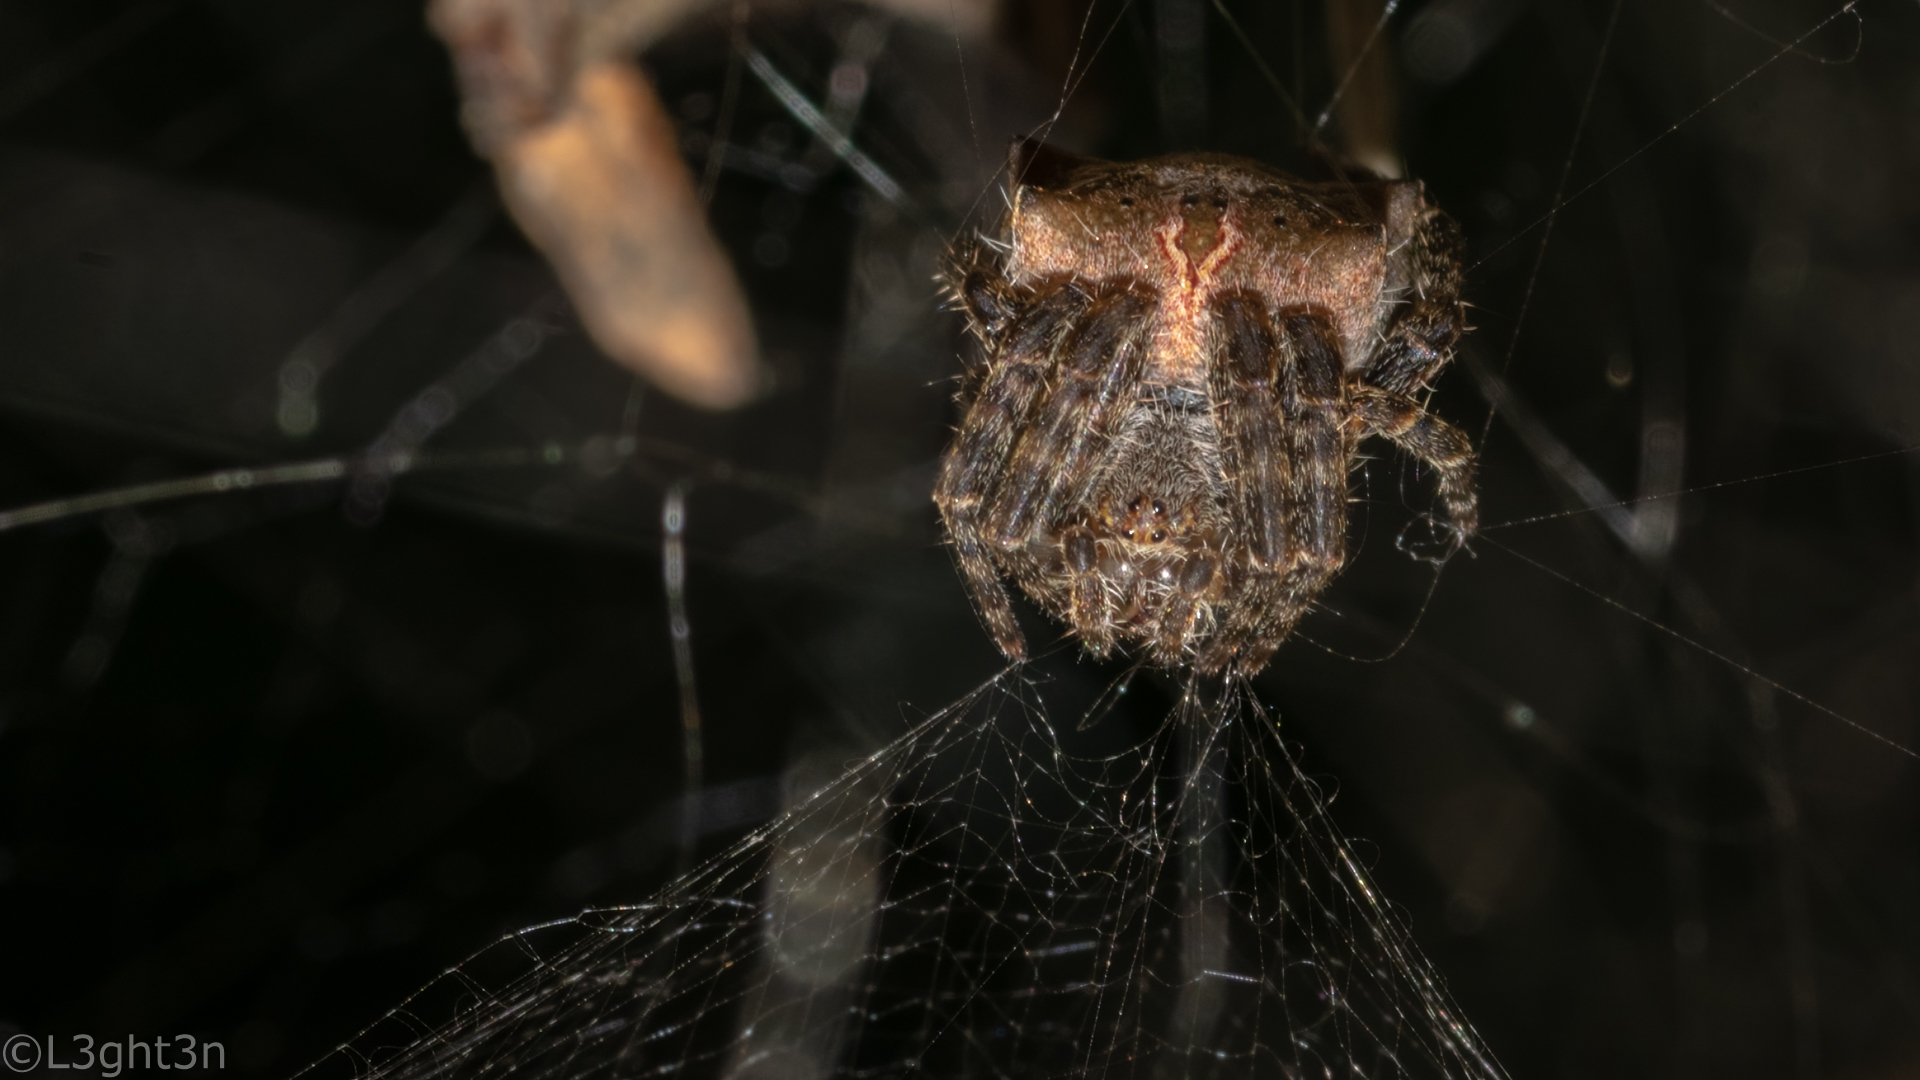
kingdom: Animalia
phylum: Arthropoda
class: Arachnida
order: Araneae
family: Araneidae
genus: Cyrtophora
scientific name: Cyrtophora citricola
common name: Orb weavers
